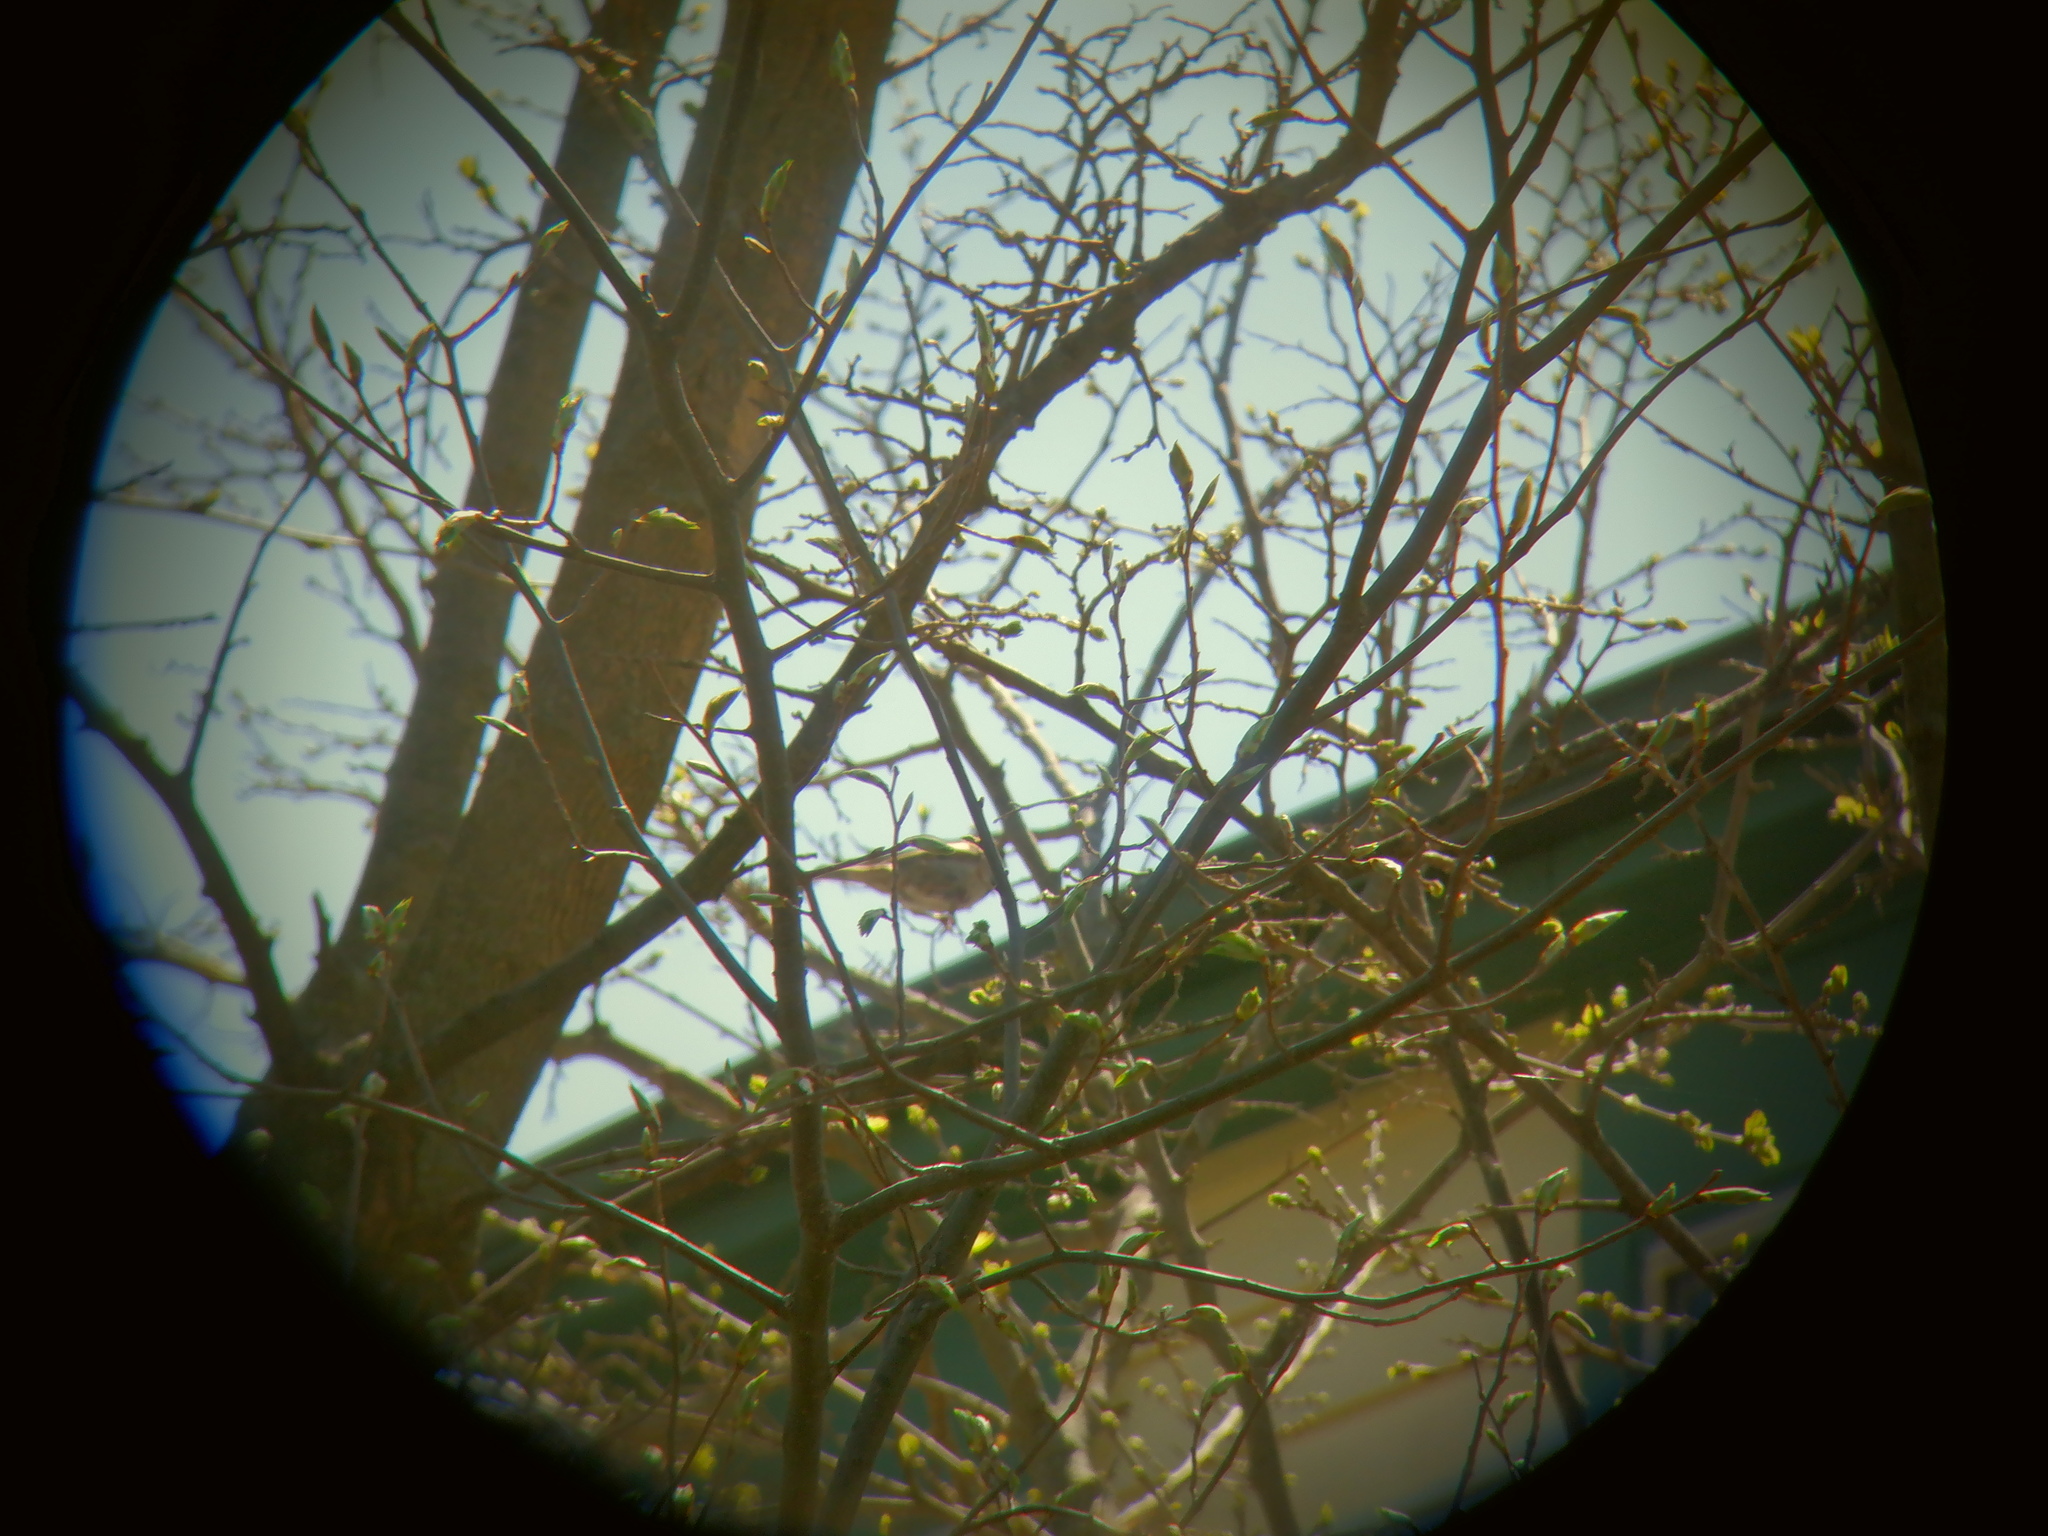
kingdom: Animalia
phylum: Chordata
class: Aves
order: Passeriformes
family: Passeridae
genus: Passer
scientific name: Passer domesticus
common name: House sparrow
